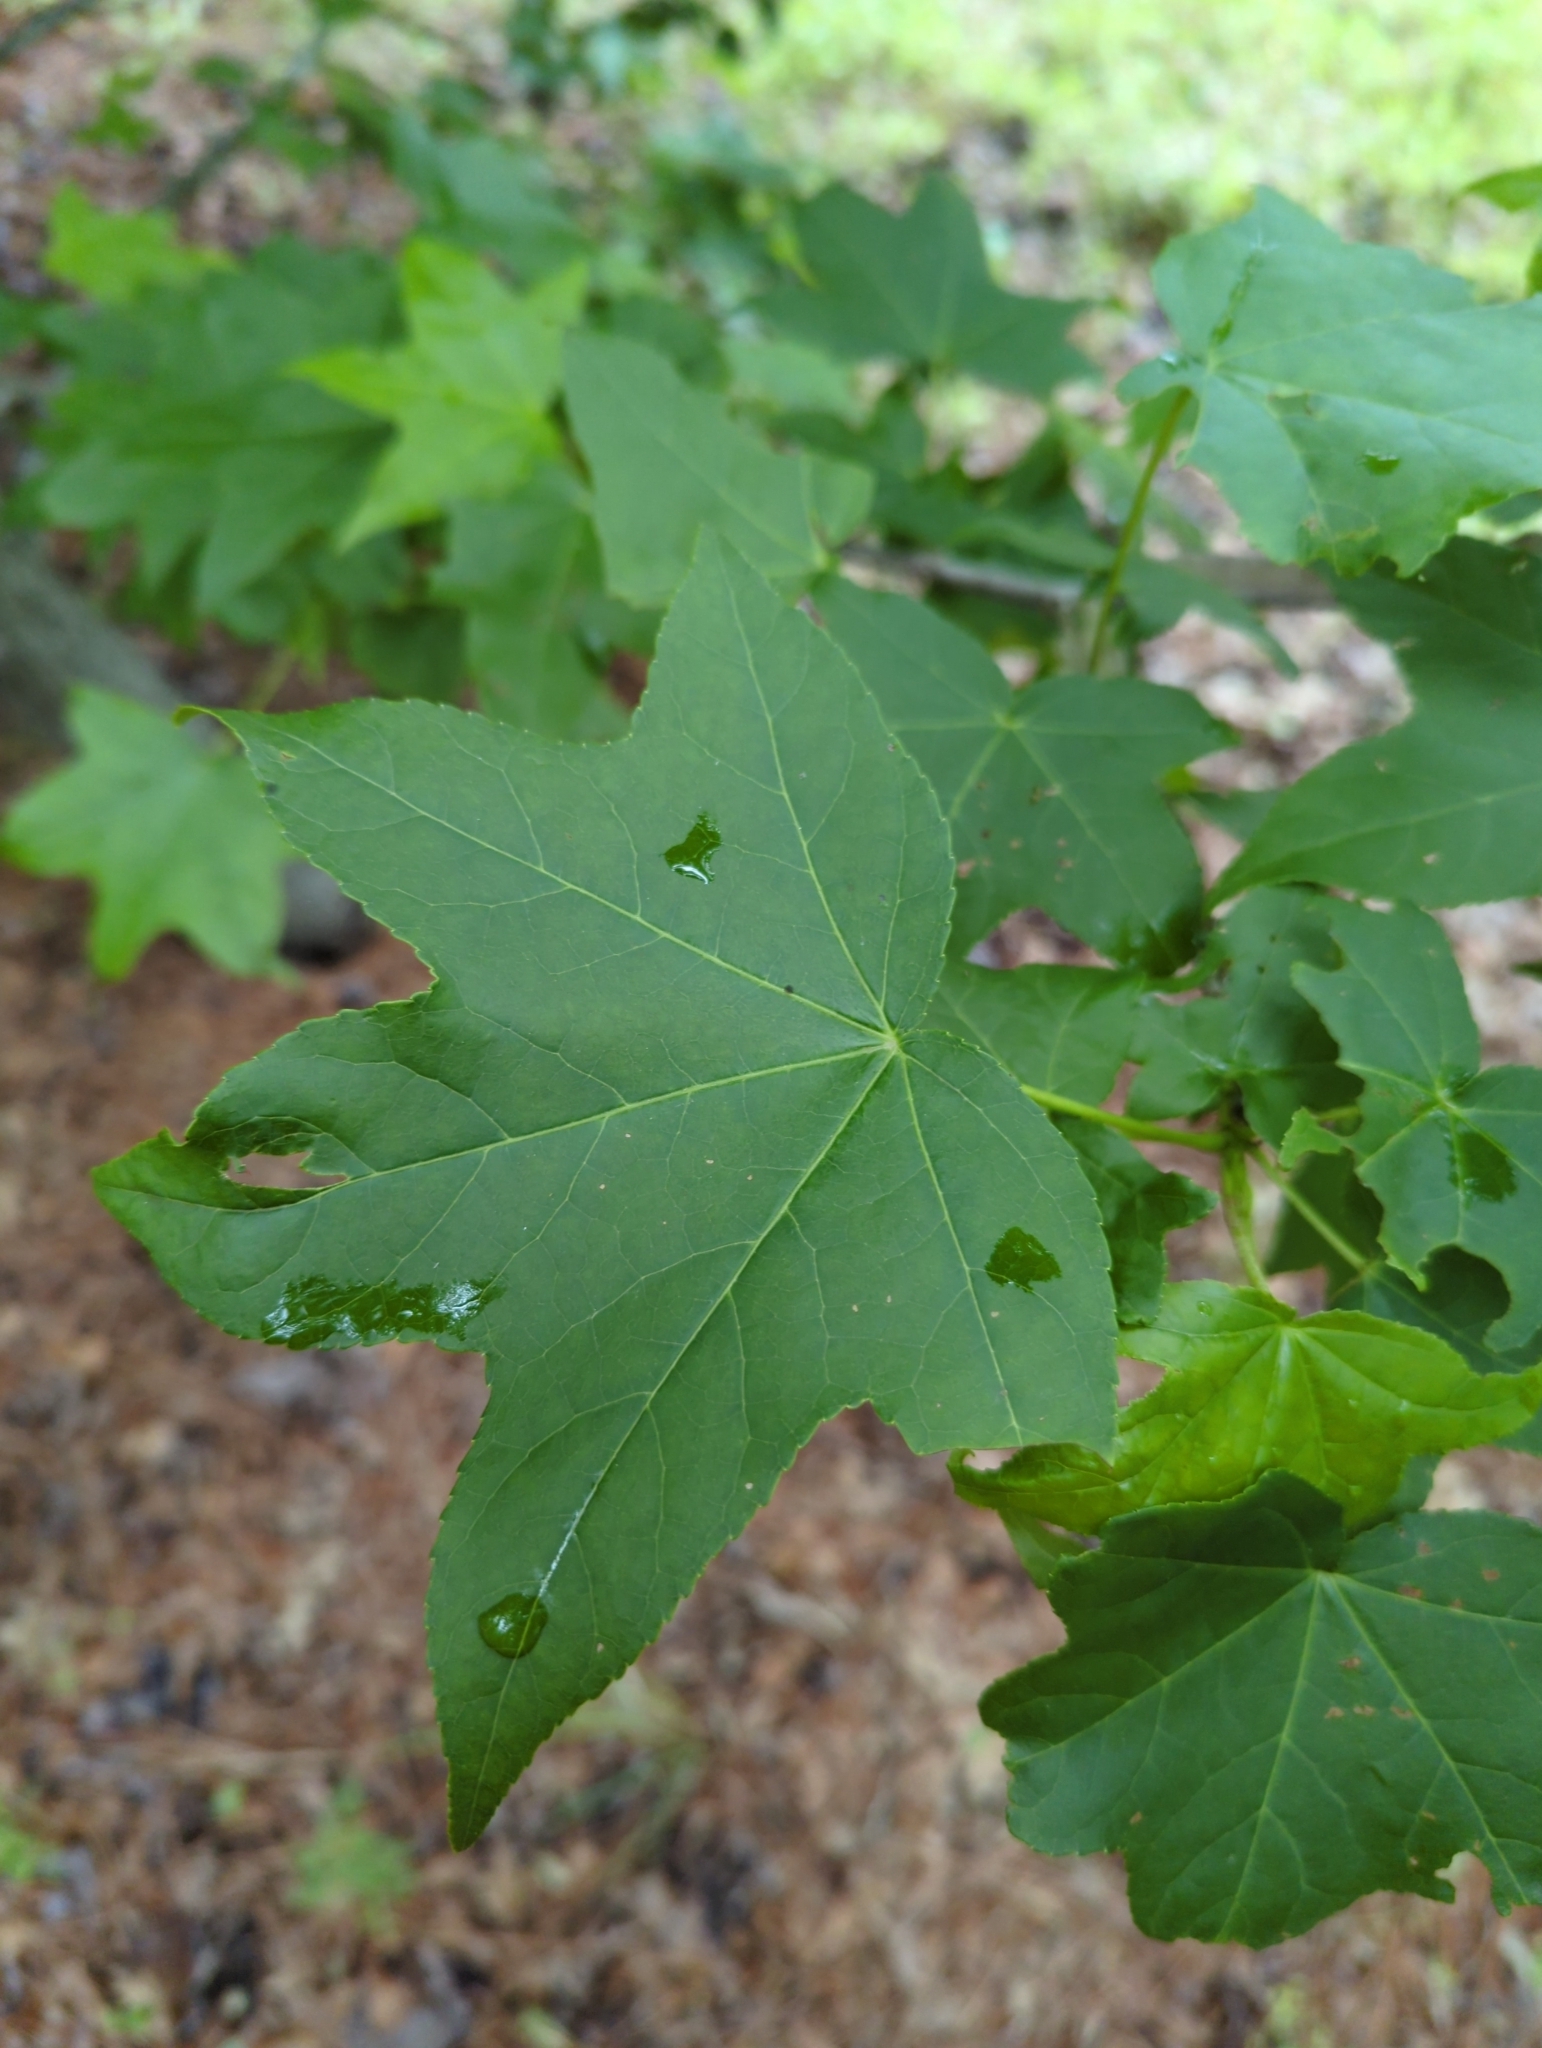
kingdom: Plantae
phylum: Tracheophyta
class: Magnoliopsida
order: Saxifragales
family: Altingiaceae
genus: Liquidambar
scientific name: Liquidambar styraciflua
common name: Sweet gum
